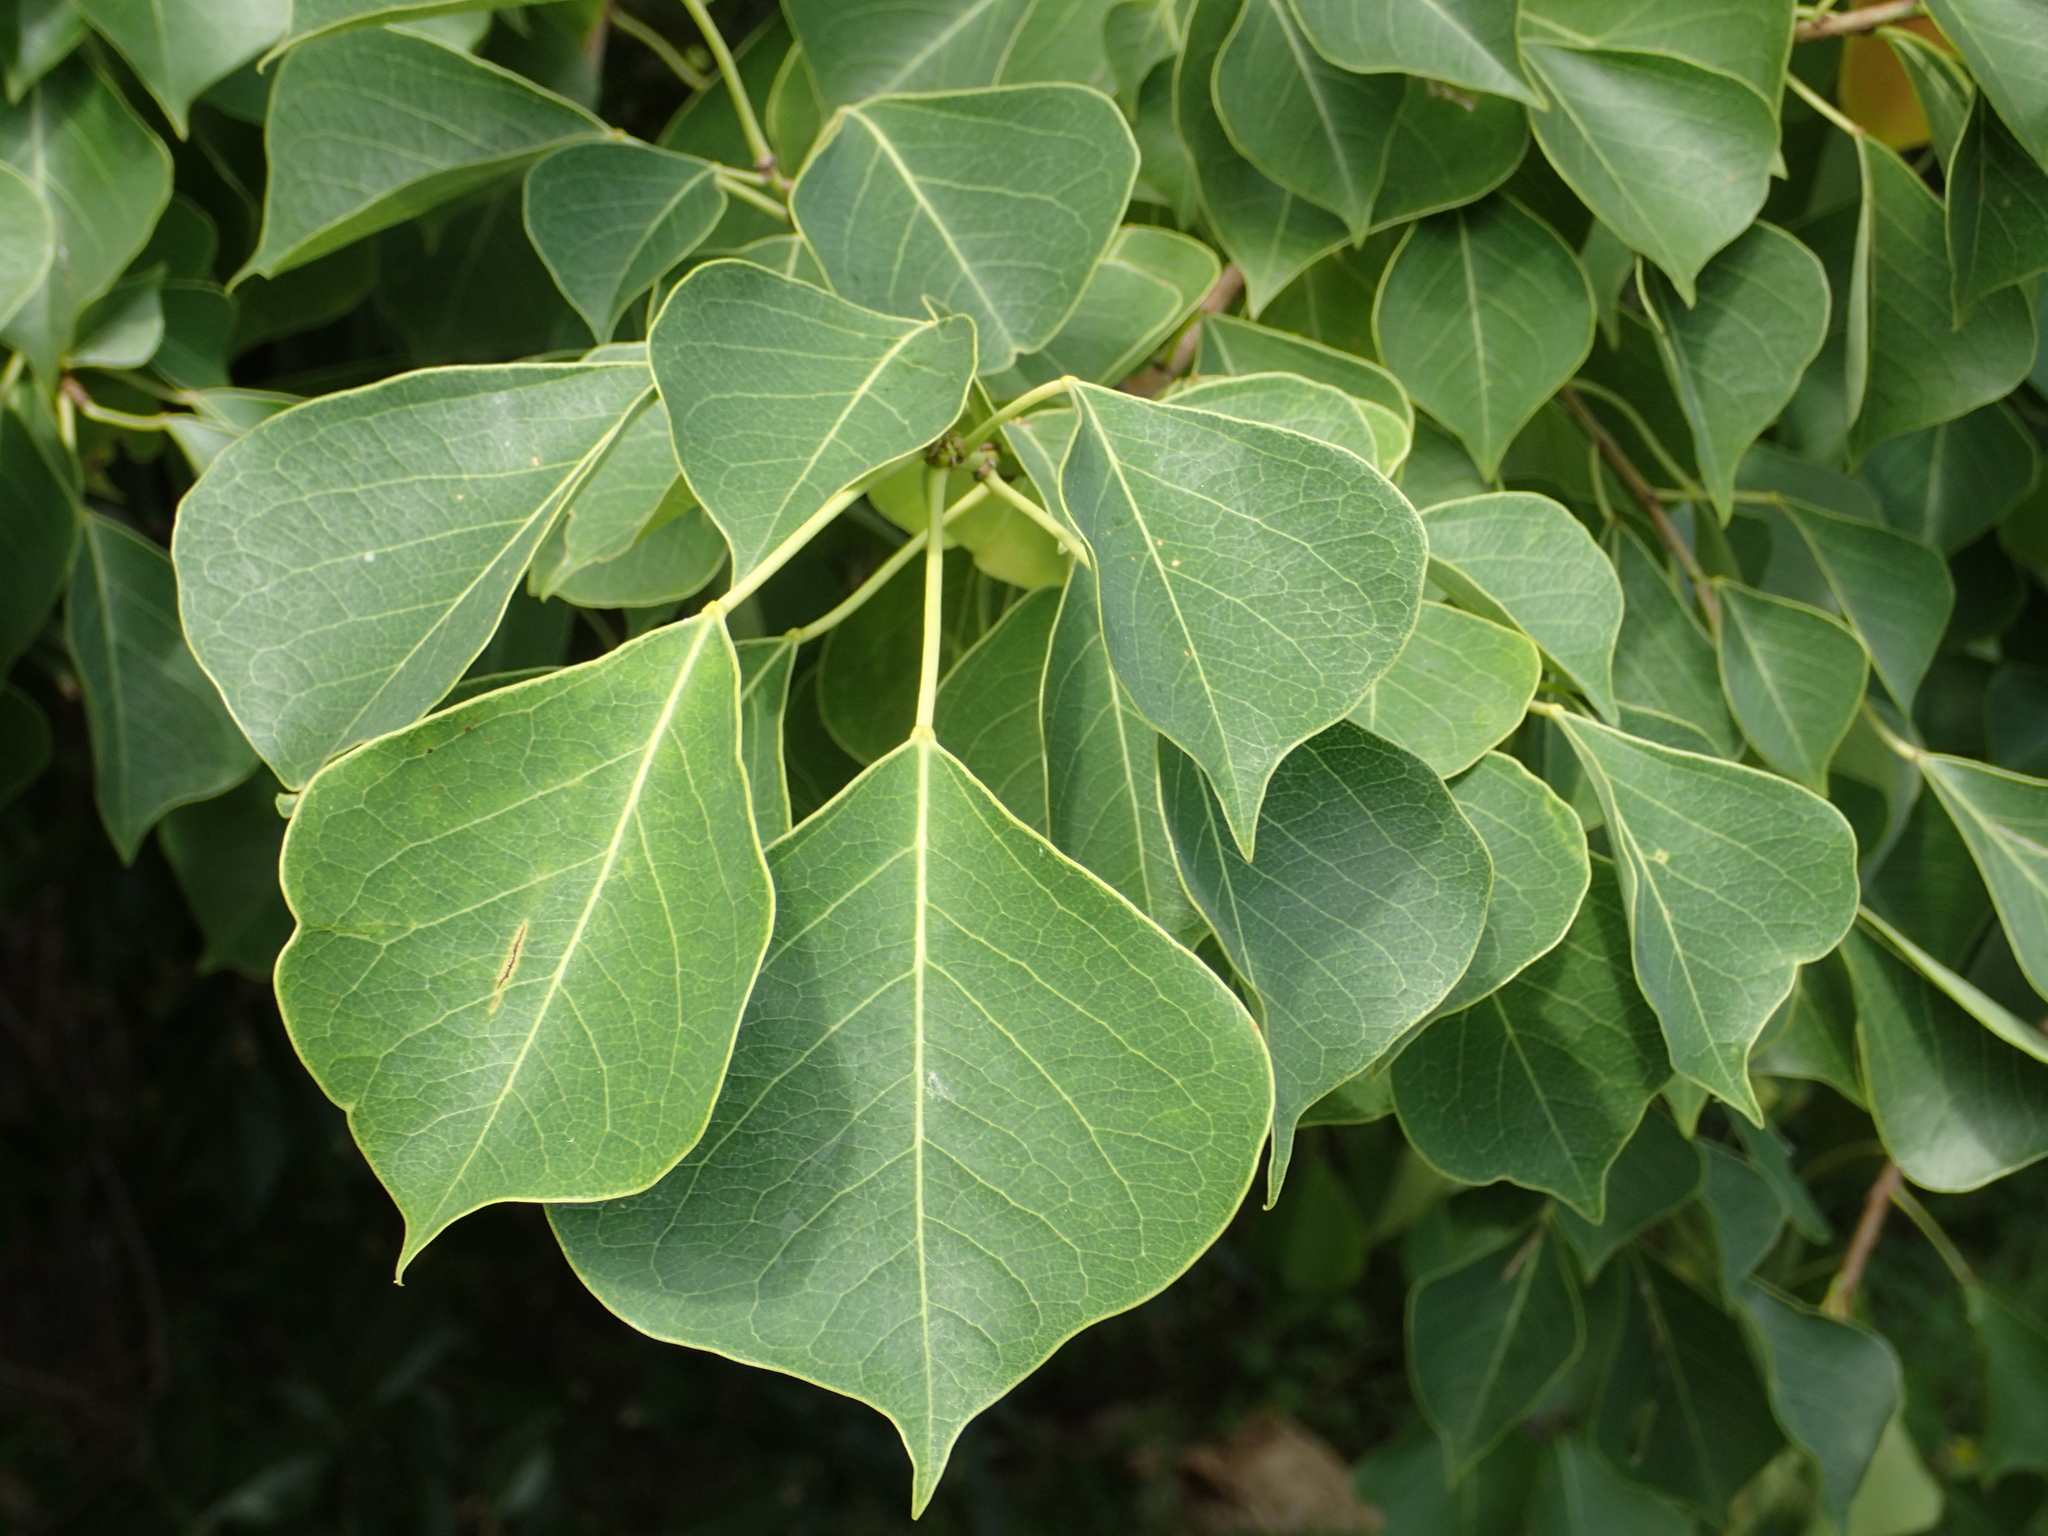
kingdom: Plantae
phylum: Tracheophyta
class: Magnoliopsida
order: Malpighiales
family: Euphorbiaceae
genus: Triadica
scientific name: Triadica sebifera
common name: Chinese tallow
